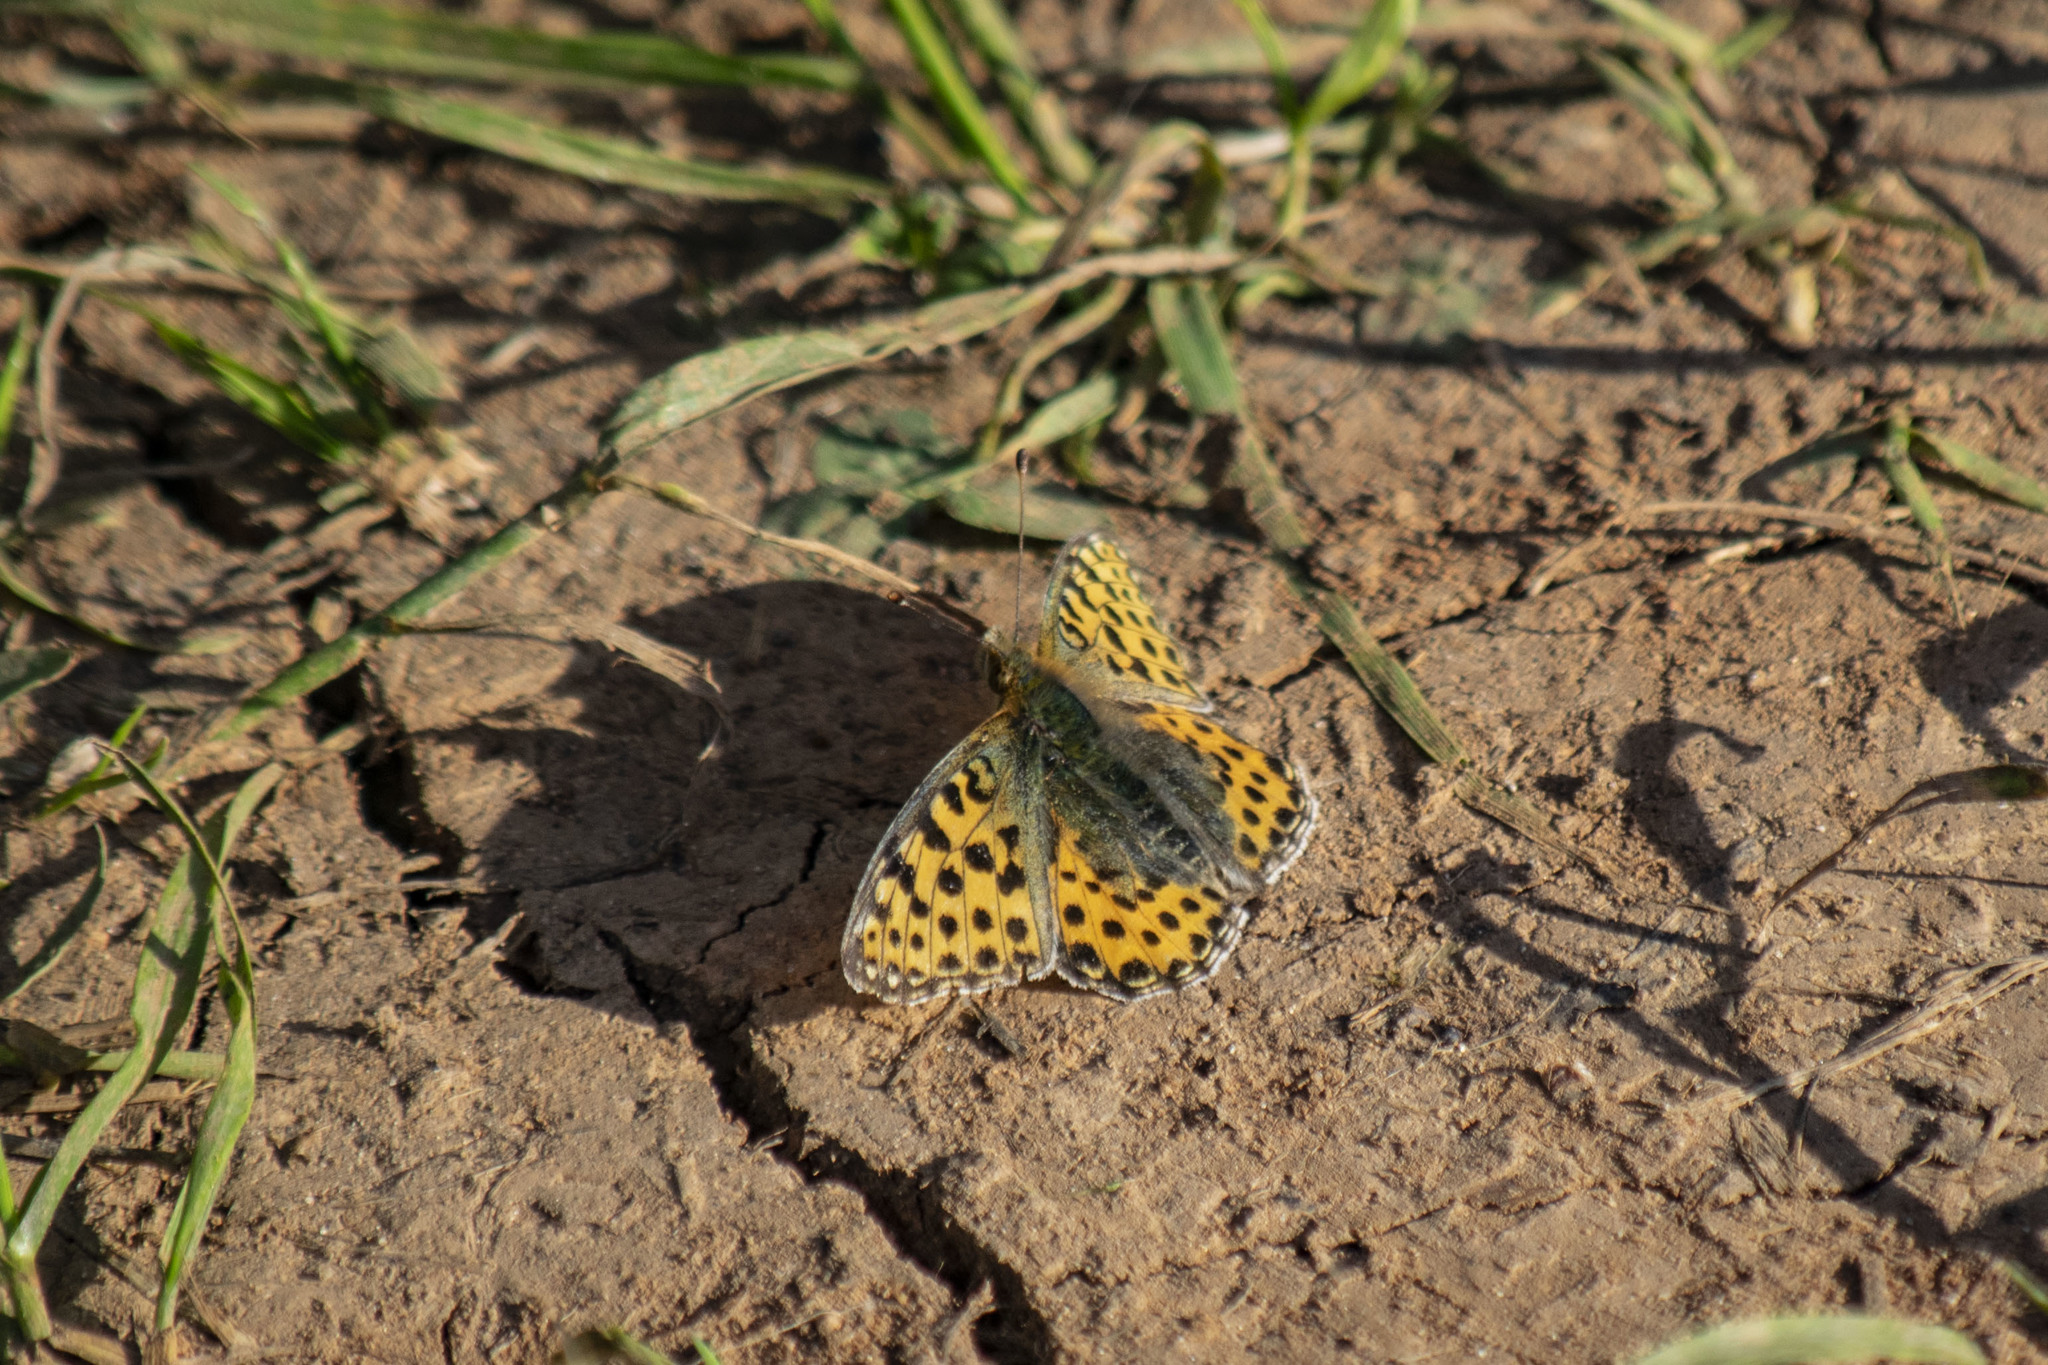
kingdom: Animalia
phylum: Arthropoda
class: Insecta
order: Lepidoptera
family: Nymphalidae
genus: Issoria
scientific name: Issoria lathonia
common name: Queen of spain fritillary
